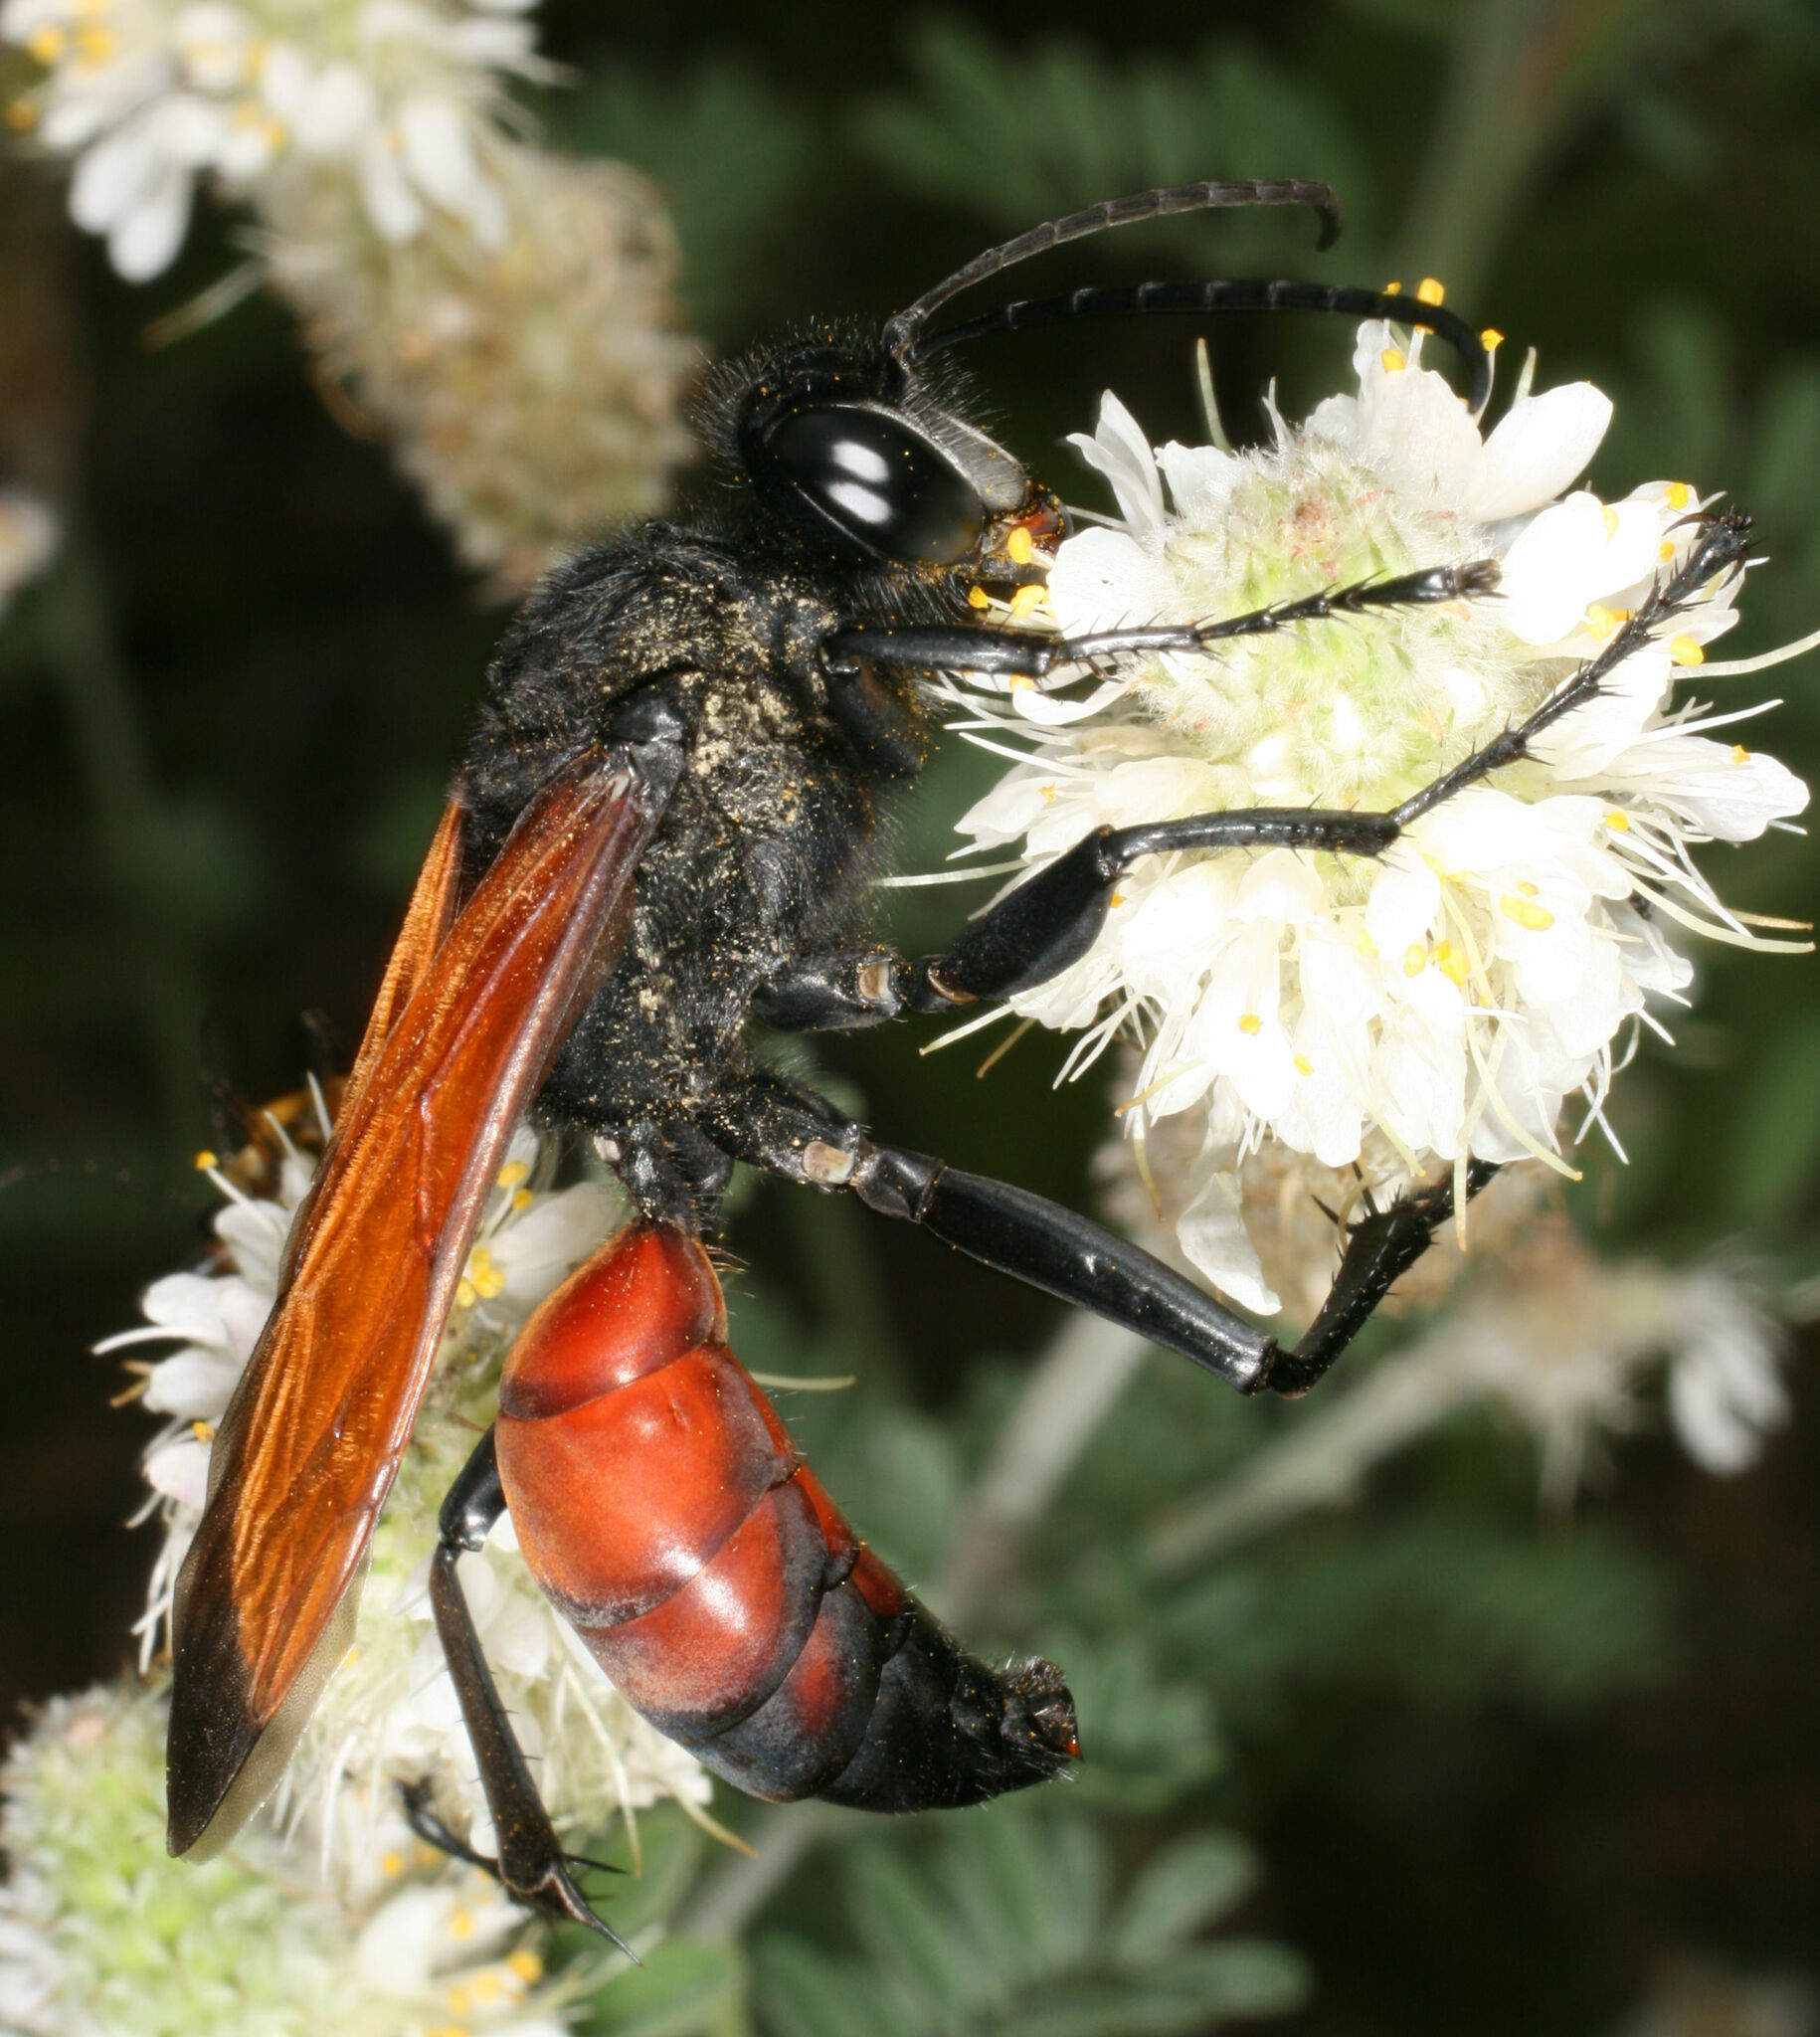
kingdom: Animalia
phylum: Arthropoda
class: Insecta
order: Hymenoptera
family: Sphecidae
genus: Sphex
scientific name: Sphex tepanecus
